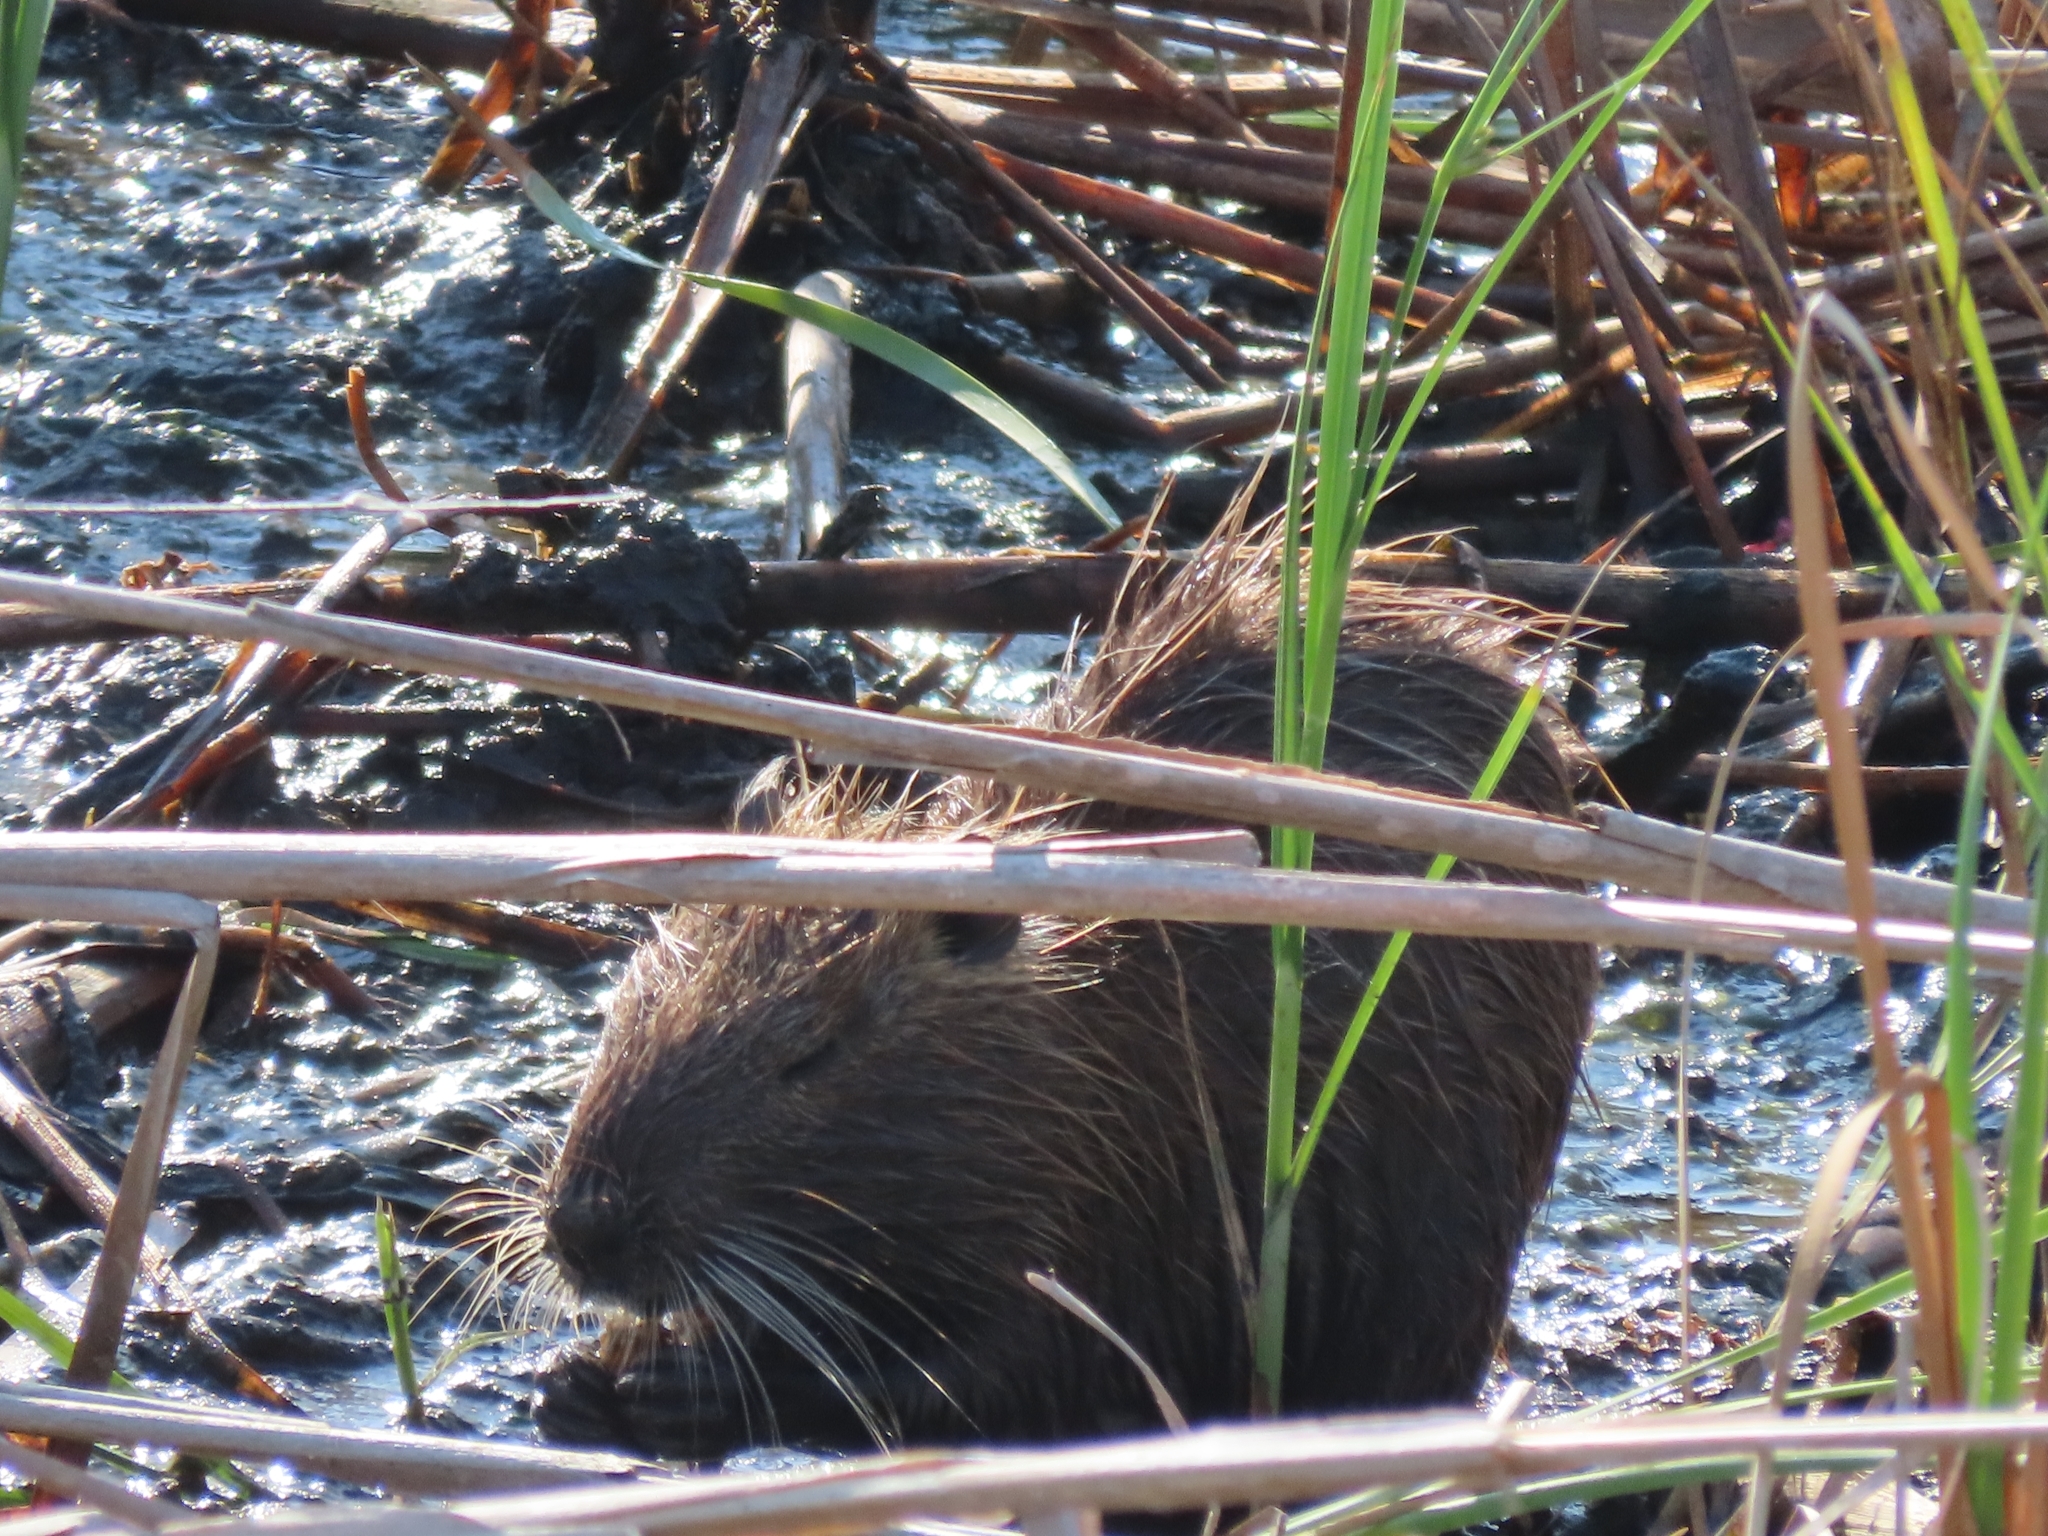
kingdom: Animalia
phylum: Chordata
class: Mammalia
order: Rodentia
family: Myocastoridae
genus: Myocastor
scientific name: Myocastor coypus
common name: Coypu
